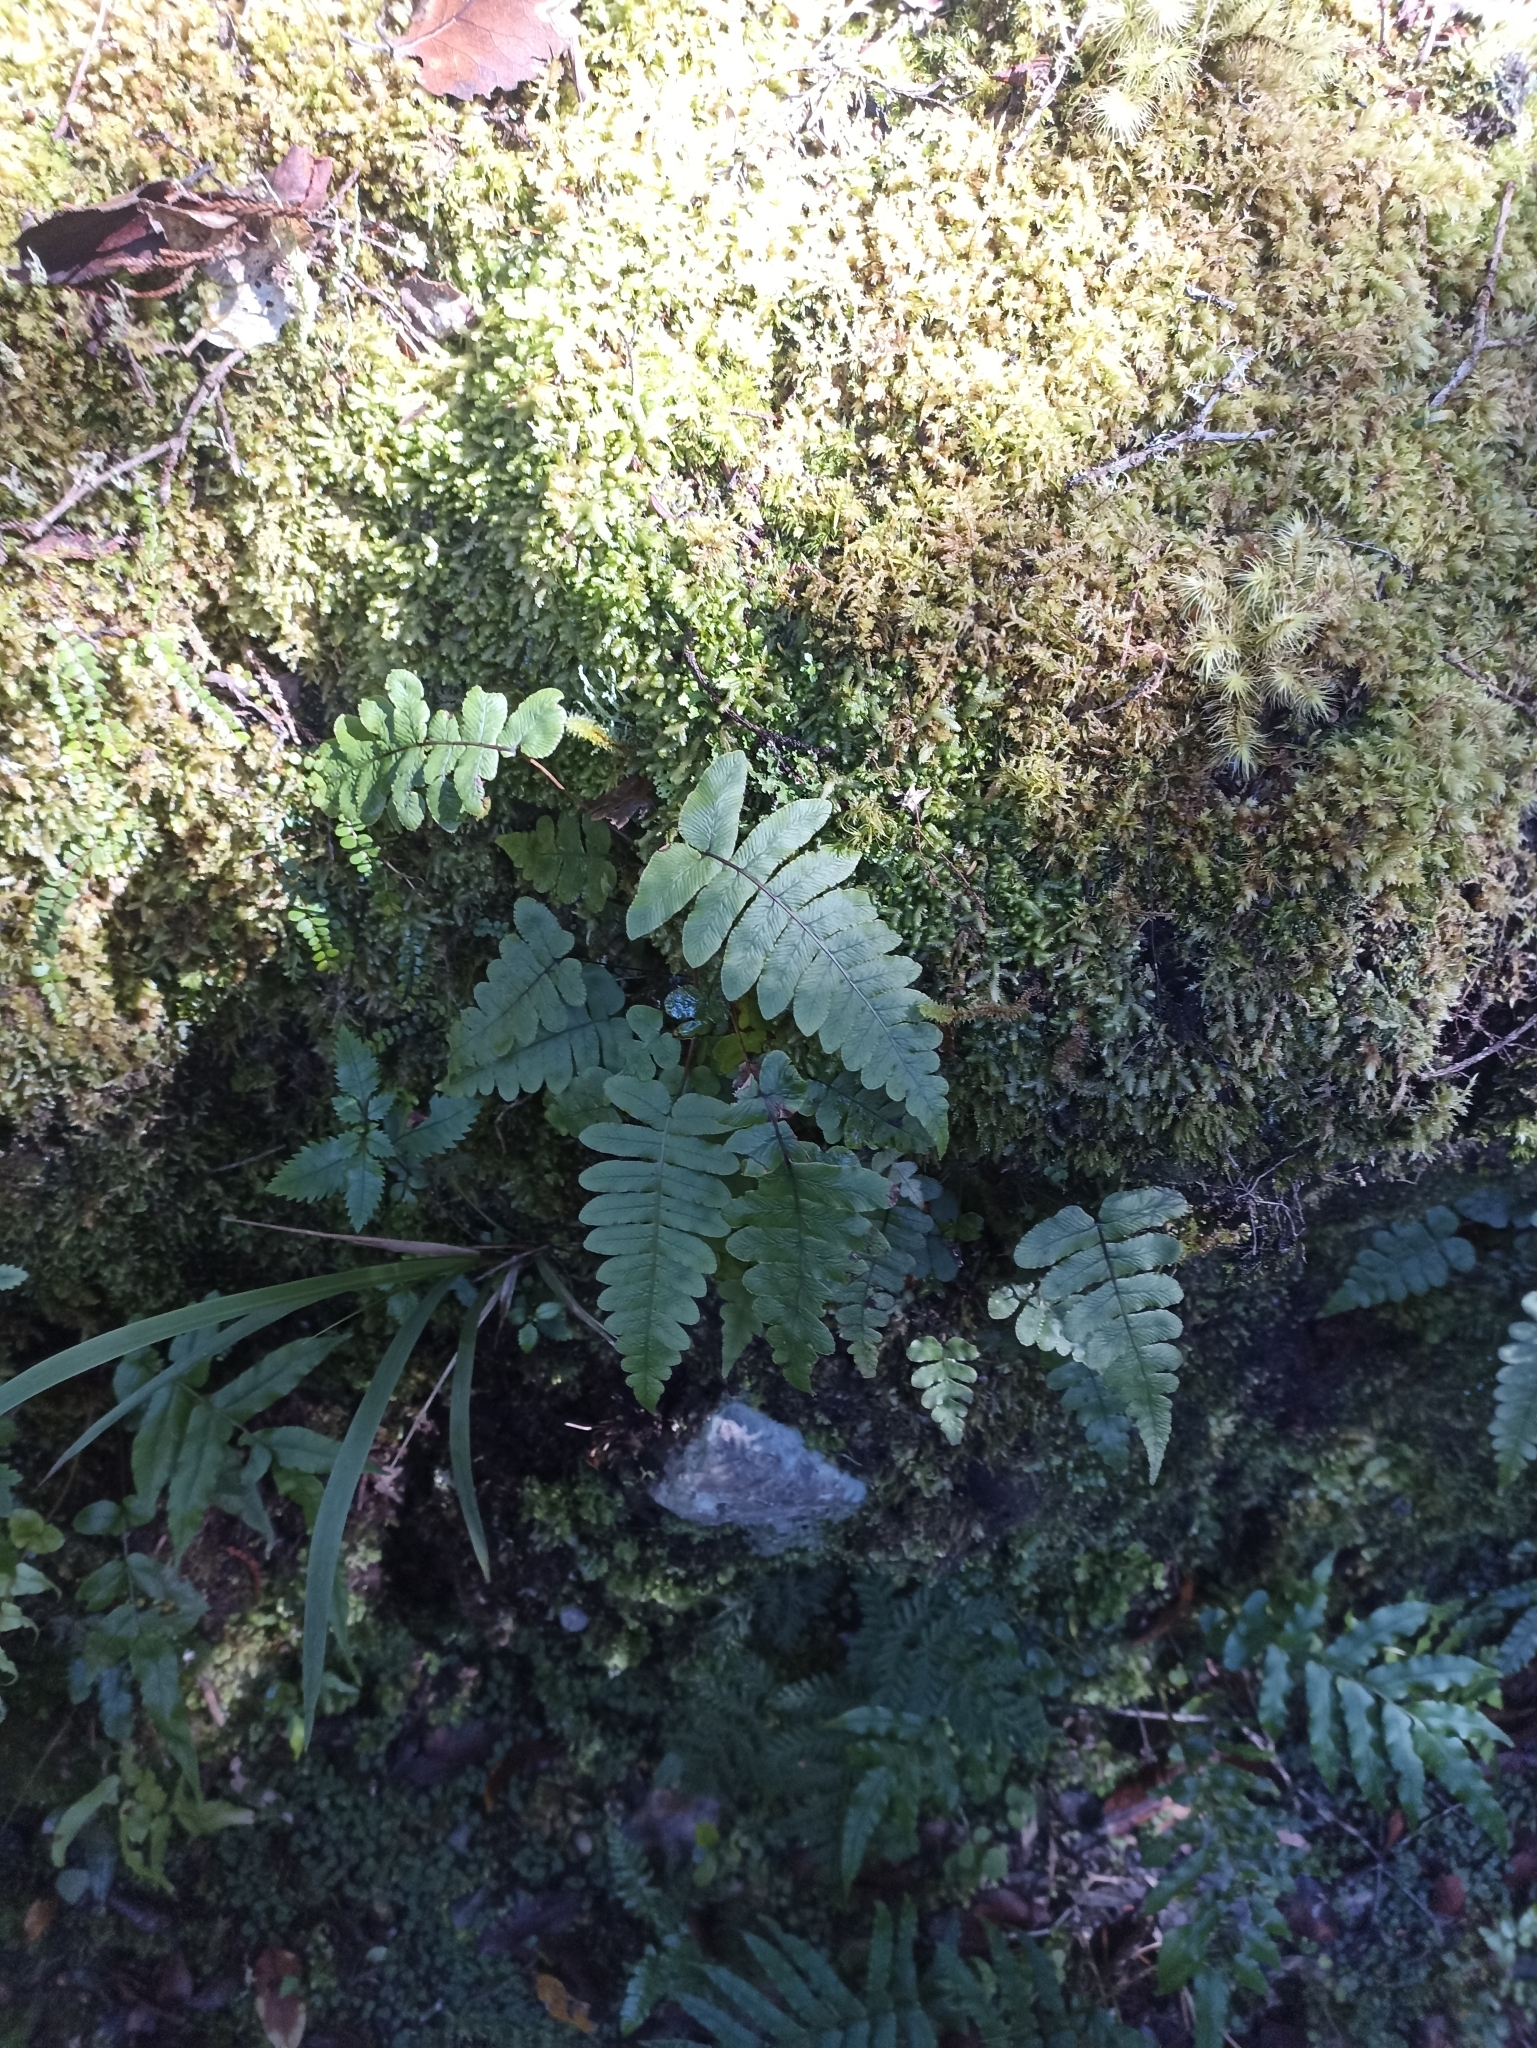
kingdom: Plantae
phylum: Tracheophyta
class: Polypodiopsida
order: Polypodiales
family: Blechnaceae
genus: Cranfillia
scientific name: Cranfillia deltoides
